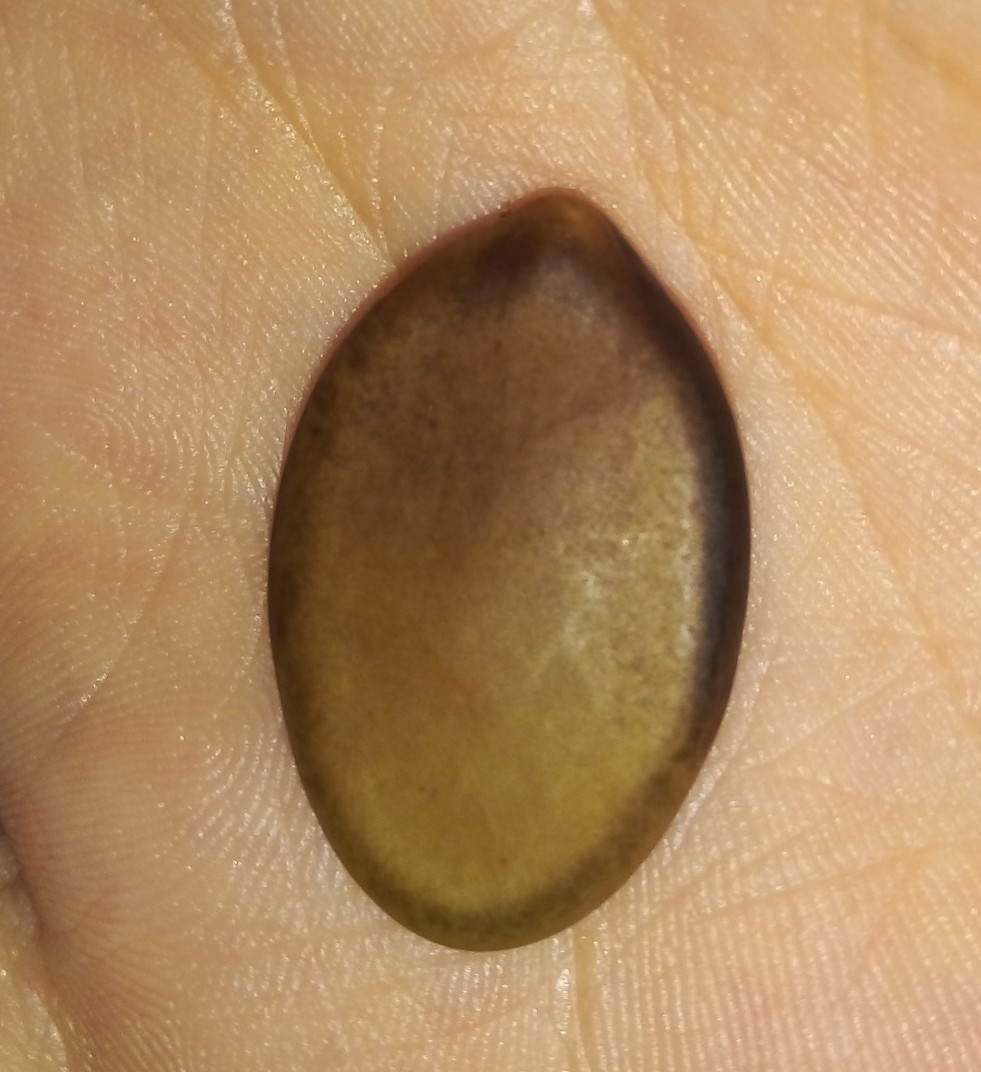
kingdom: Plantae
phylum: Tracheophyta
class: Magnoliopsida
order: Fabales
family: Fabaceae
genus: Schizolobium
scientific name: Schizolobium parahyba
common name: Brazilian firetree
